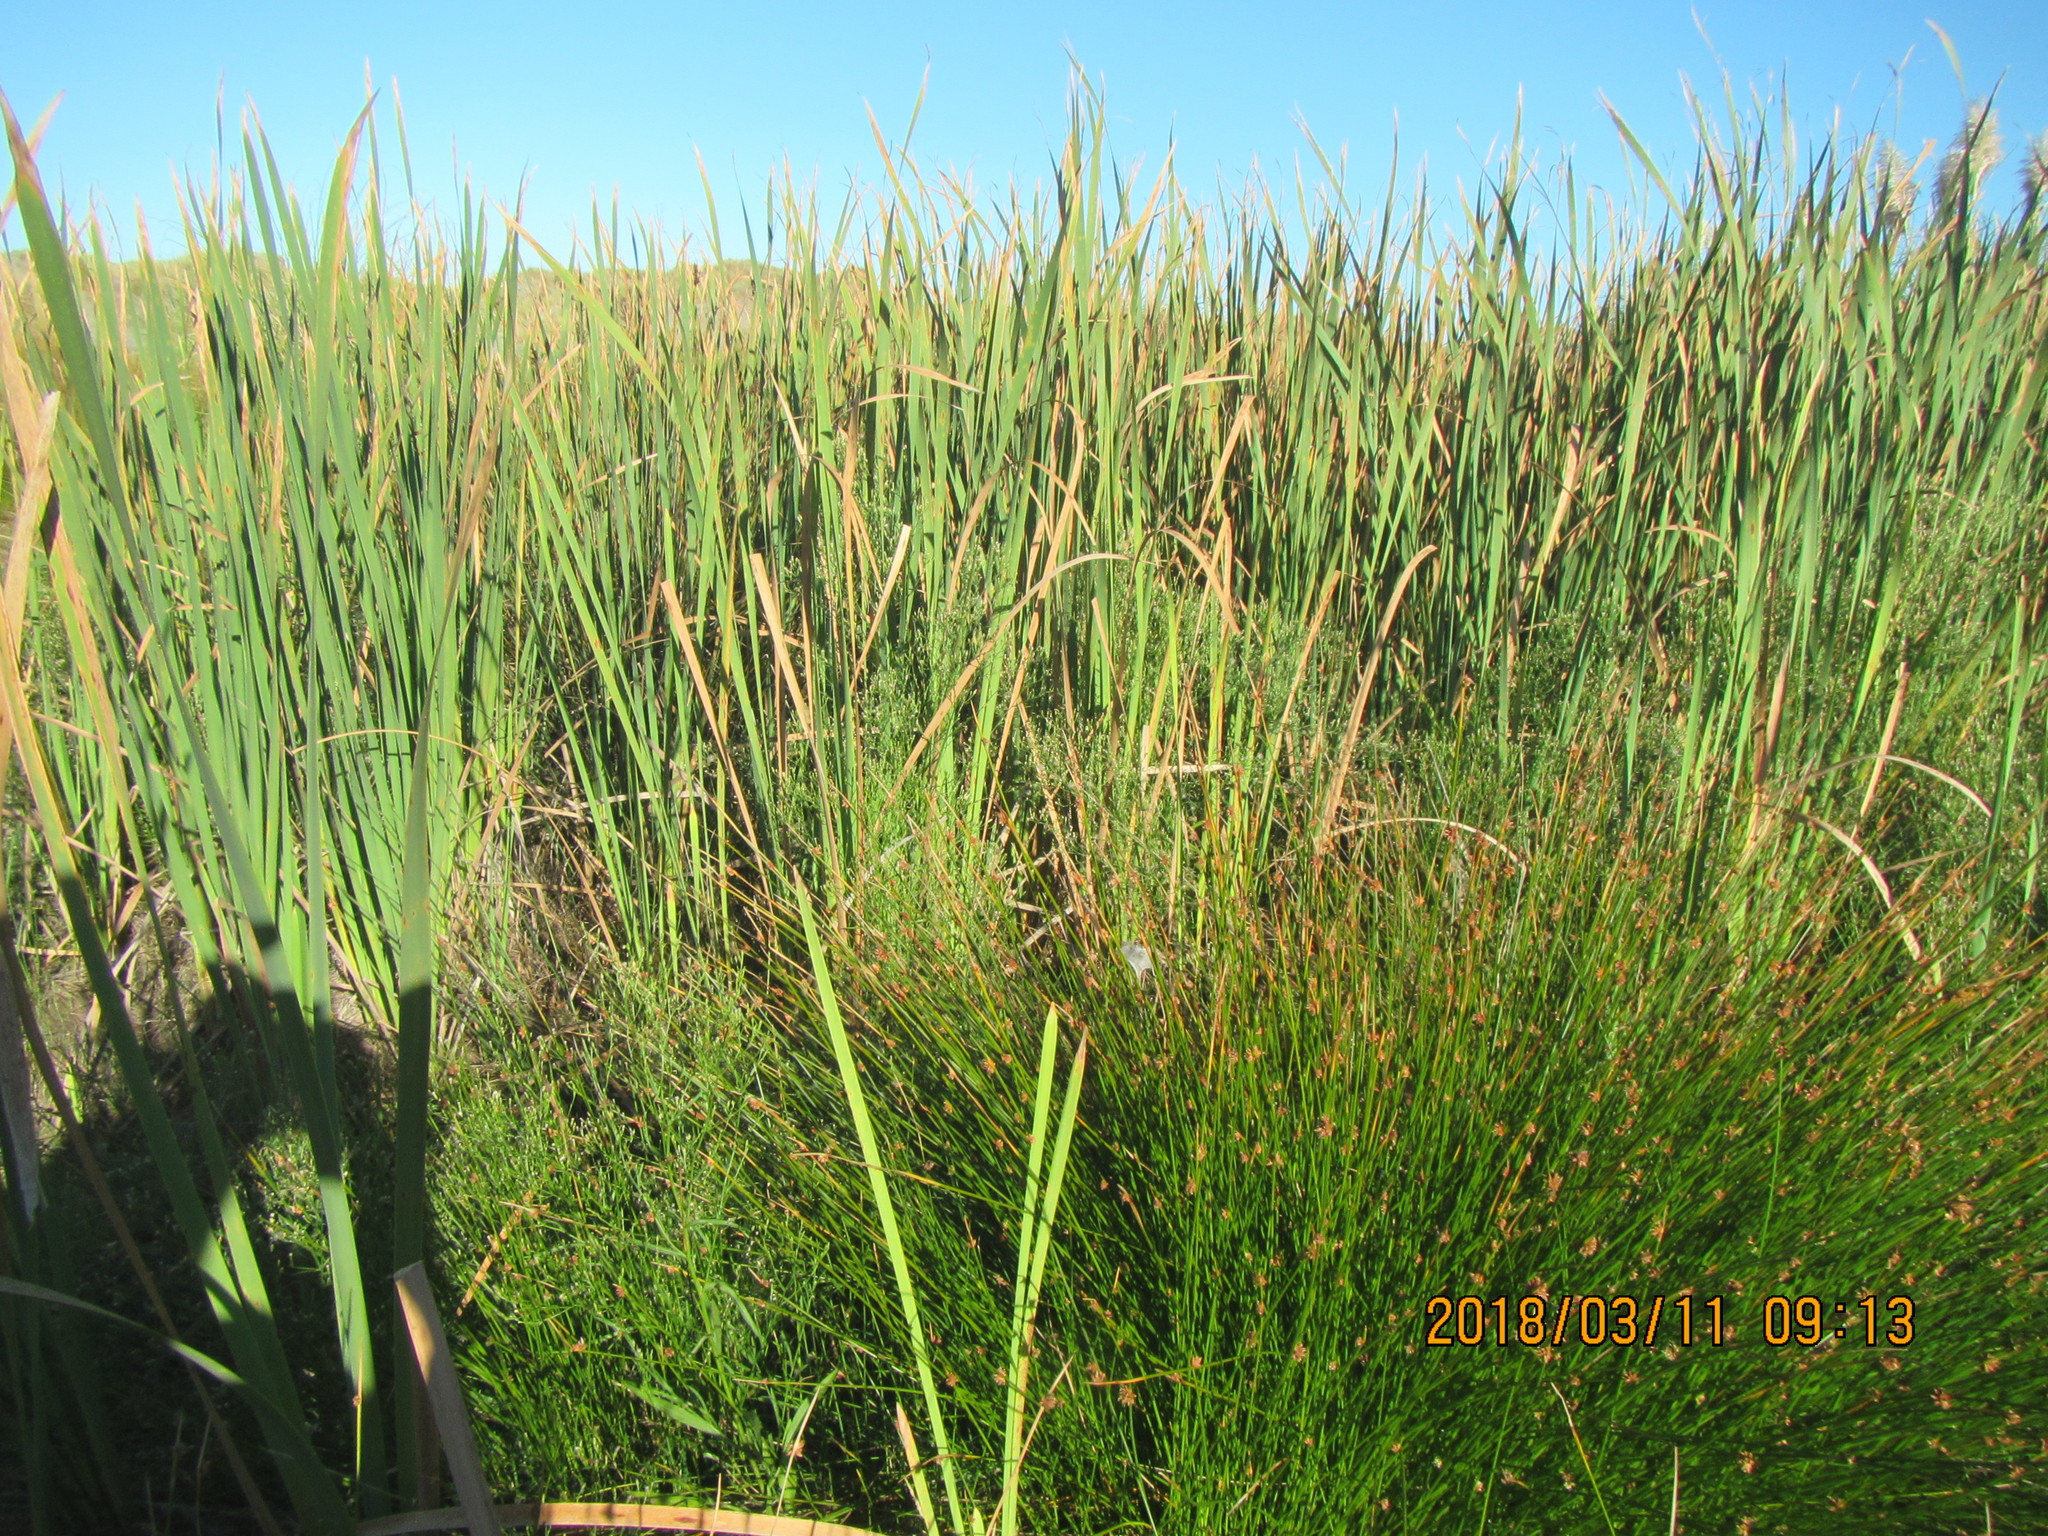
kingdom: Plantae
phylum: Tracheophyta
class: Liliopsida
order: Poales
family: Typhaceae
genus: Typha
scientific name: Typha orientalis
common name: Bullrush
